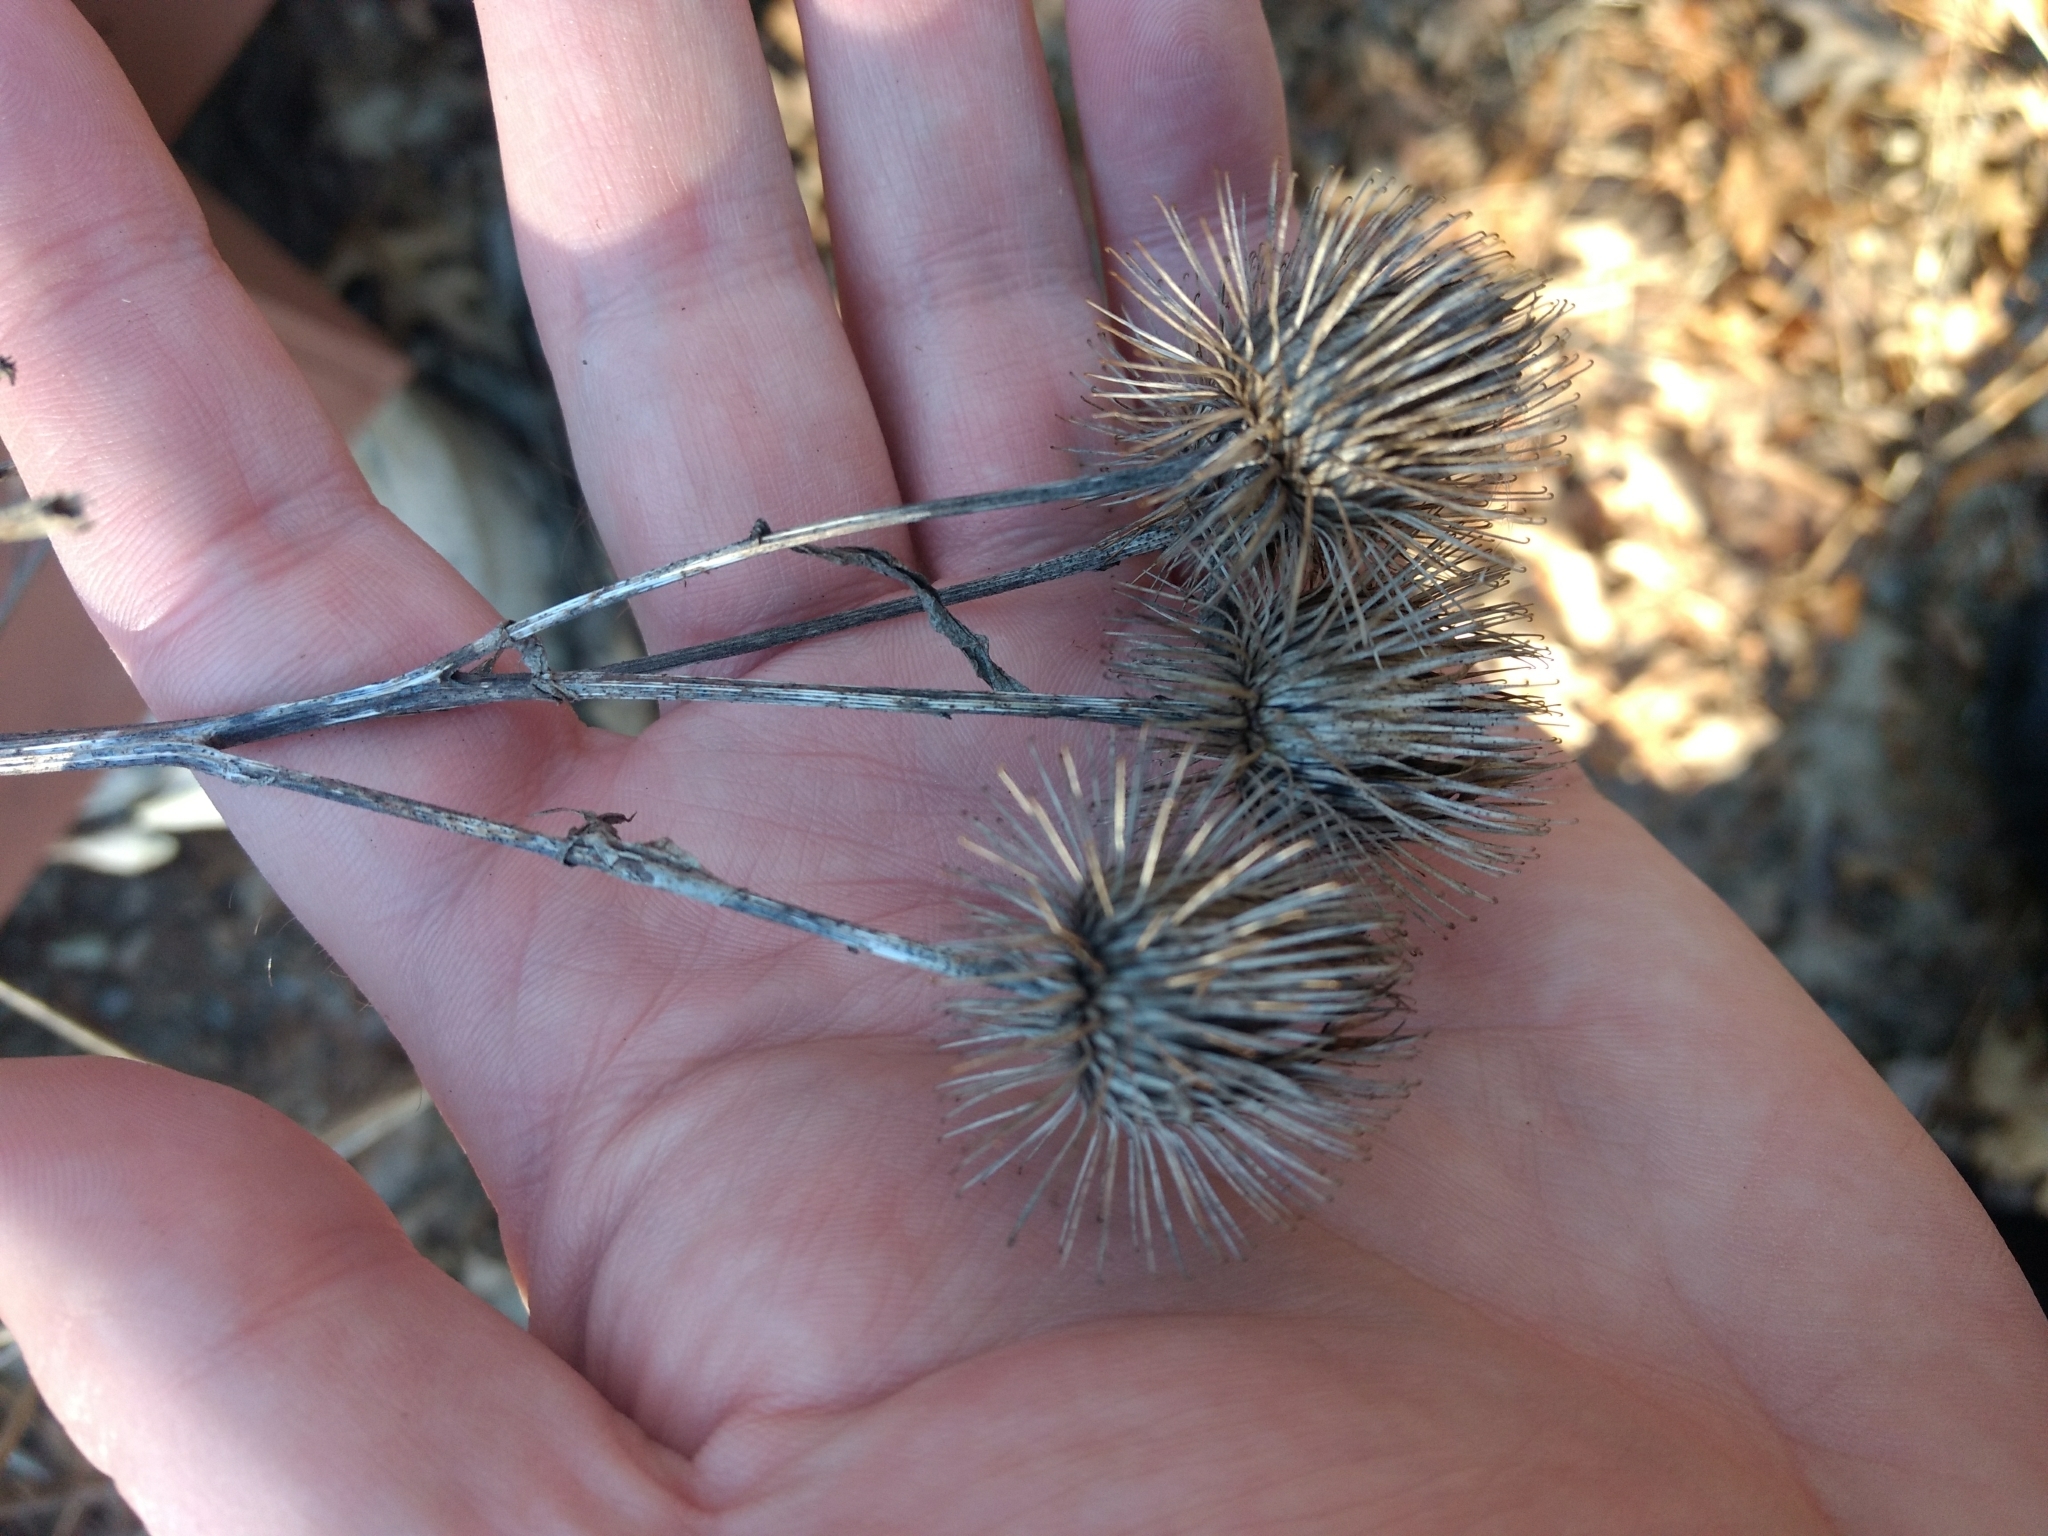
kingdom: Plantae
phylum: Tracheophyta
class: Magnoliopsida
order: Asterales
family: Asteraceae
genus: Arctium
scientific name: Arctium lappa
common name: Greater burdock
